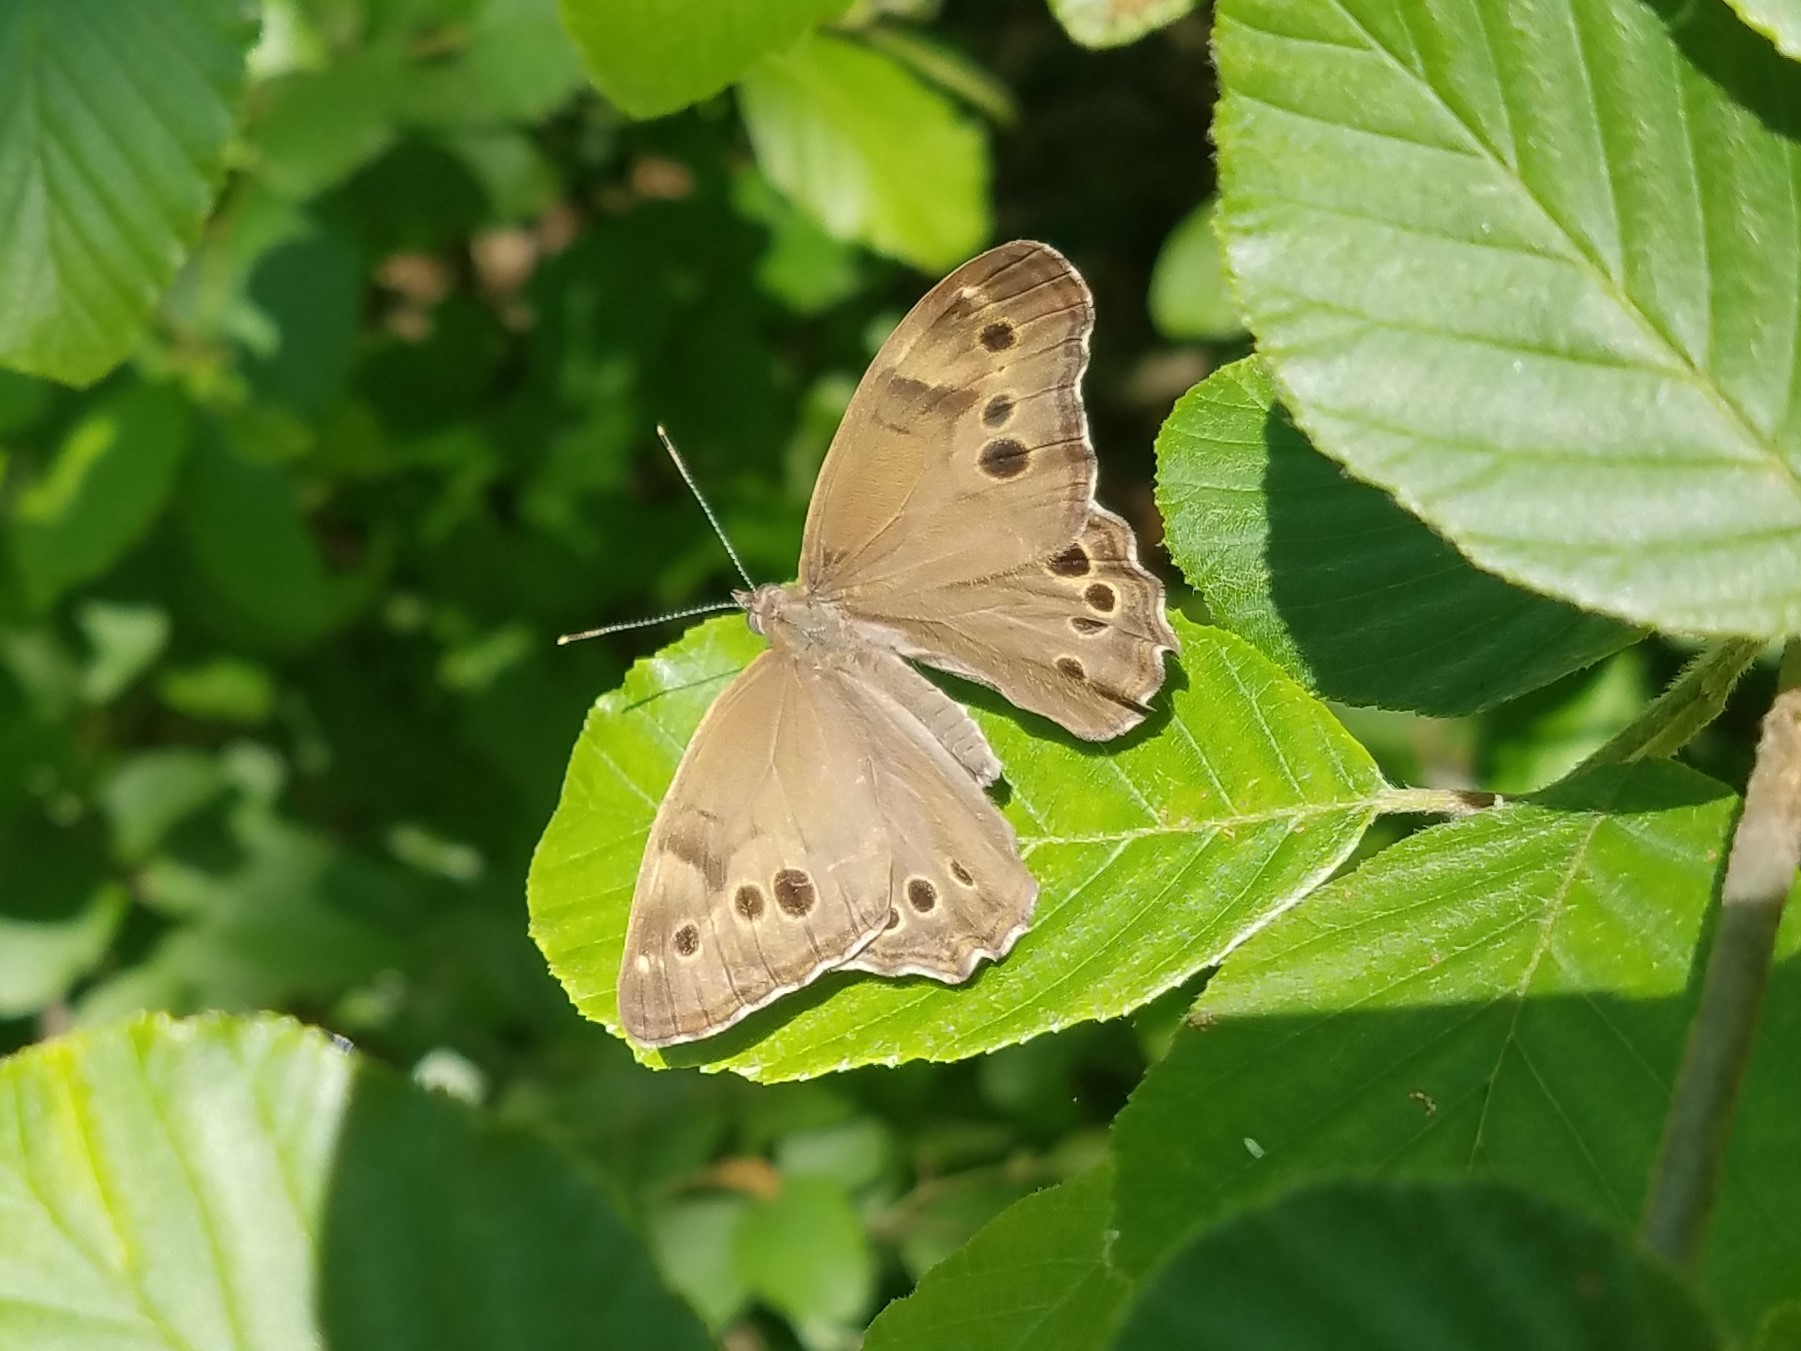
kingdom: Animalia
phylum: Arthropoda
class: Insecta
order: Lepidoptera
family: Nymphalidae
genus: Lethe
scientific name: Lethe anthedon
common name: Northern pearly-eye
